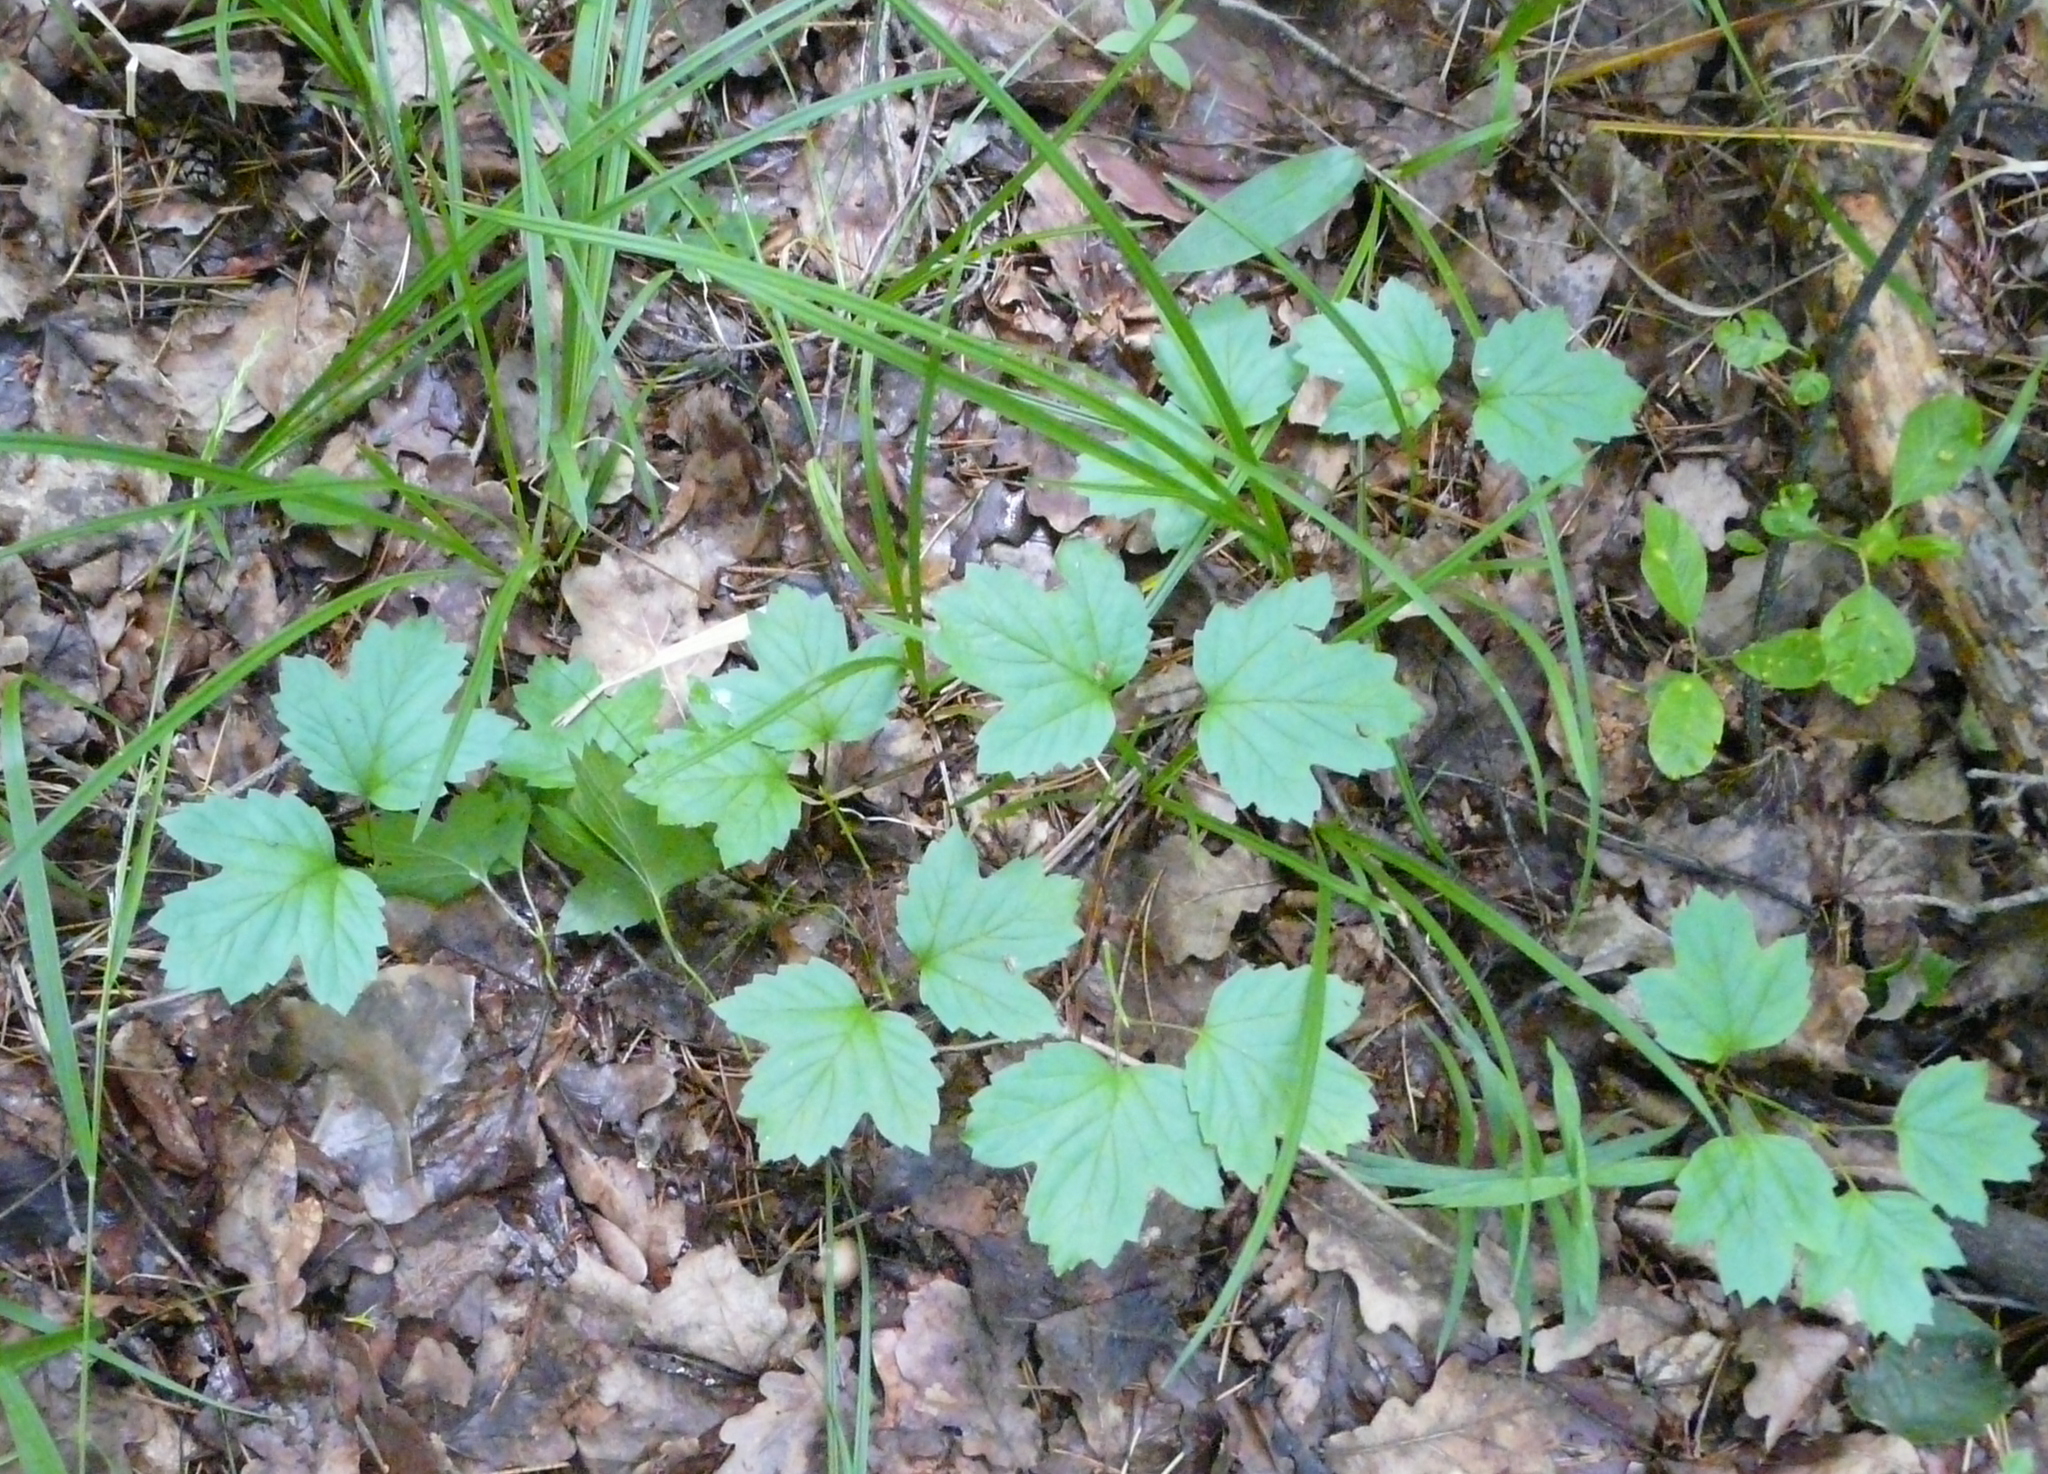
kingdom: Plantae
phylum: Tracheophyta
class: Magnoliopsida
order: Dipsacales
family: Viburnaceae
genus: Viburnum
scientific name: Viburnum opulus
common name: Guelder-rose
